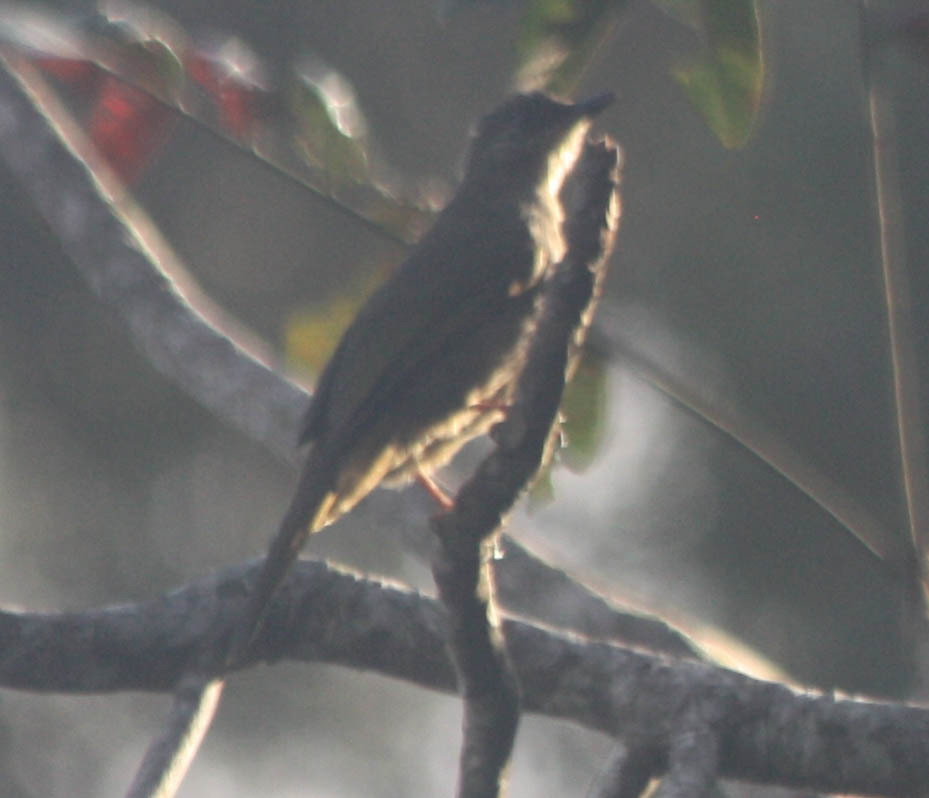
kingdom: Animalia
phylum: Chordata
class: Aves
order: Passeriformes
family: Pycnonotidae
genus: Pycnonotus
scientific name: Pycnonotus plumosus
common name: Olive-winged bulbul
